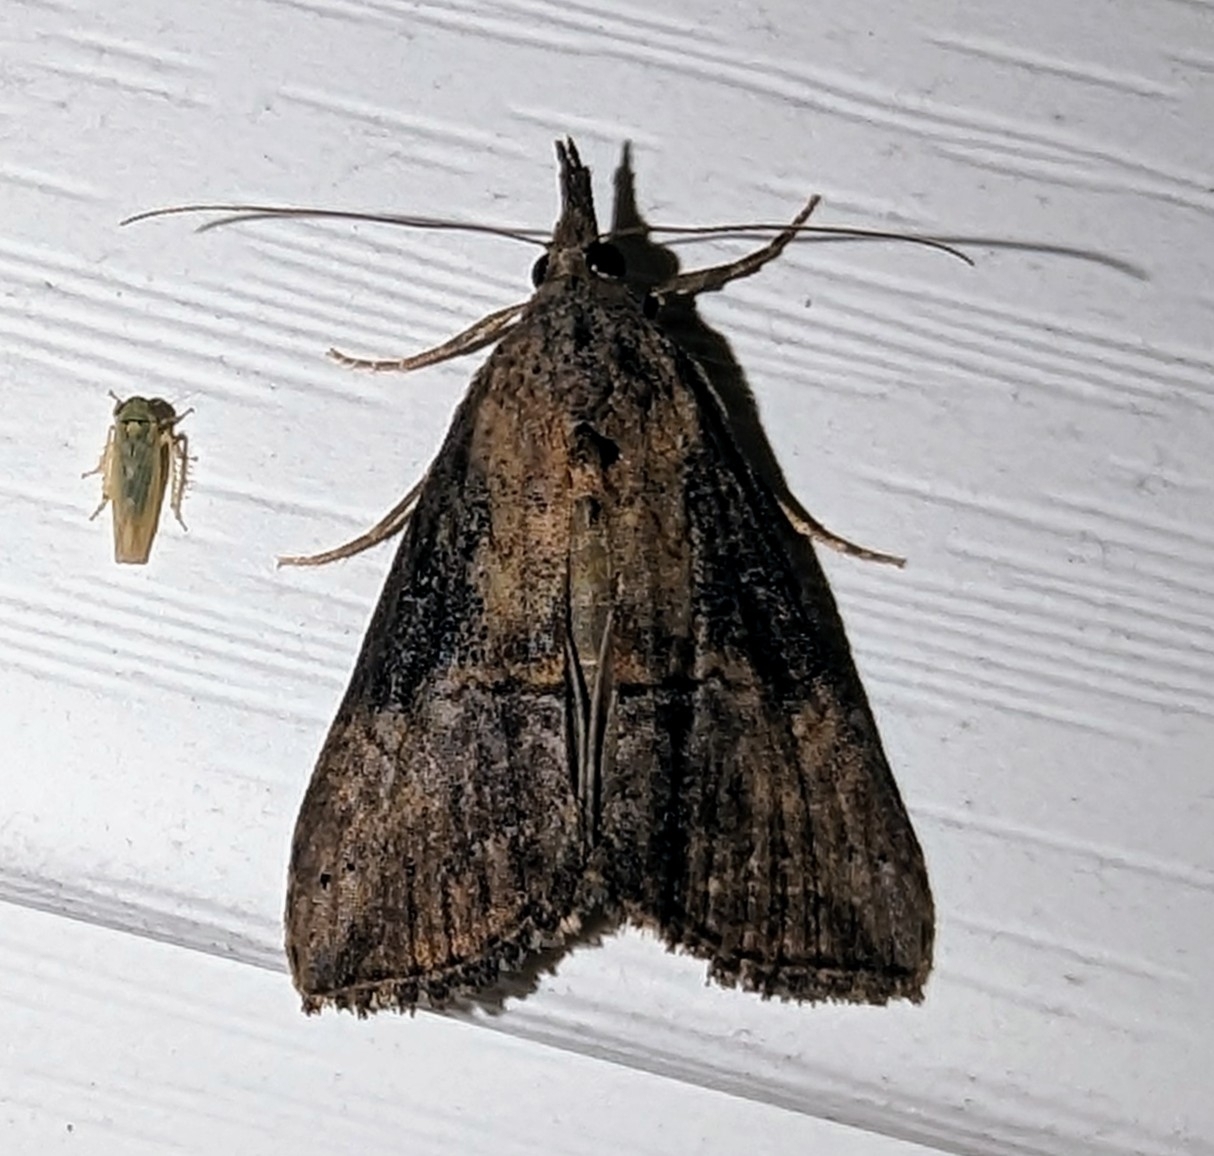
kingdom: Animalia
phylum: Arthropoda
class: Insecta
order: Lepidoptera
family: Erebidae
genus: Hypena
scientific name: Hypena scabra
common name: Green cloverworm
